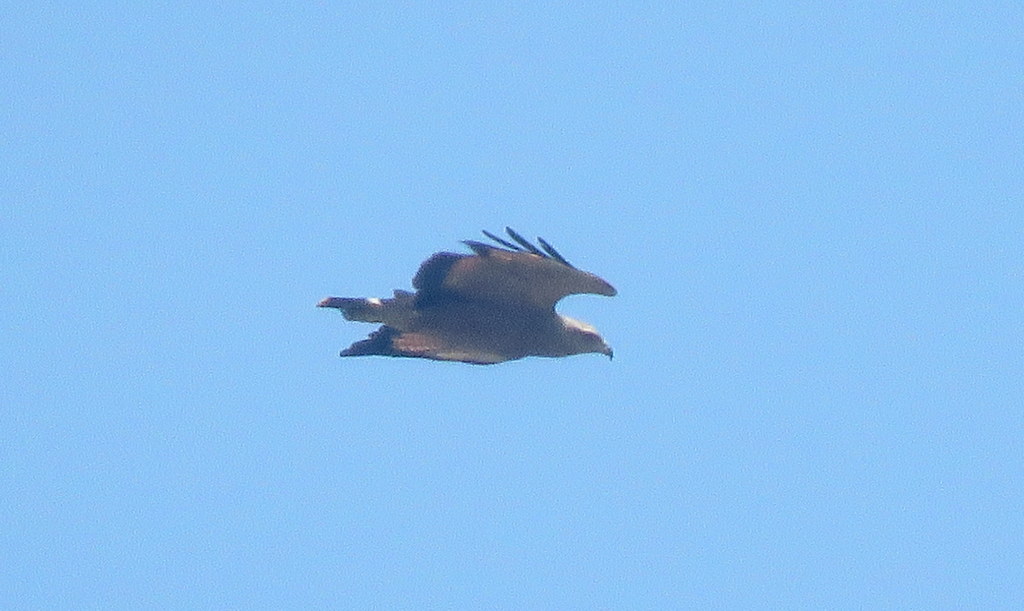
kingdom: Animalia
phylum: Chordata
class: Aves
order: Accipitriformes
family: Accipitridae
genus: Buteogallus
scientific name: Buteogallus meridionalis
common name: Savanna hawk
